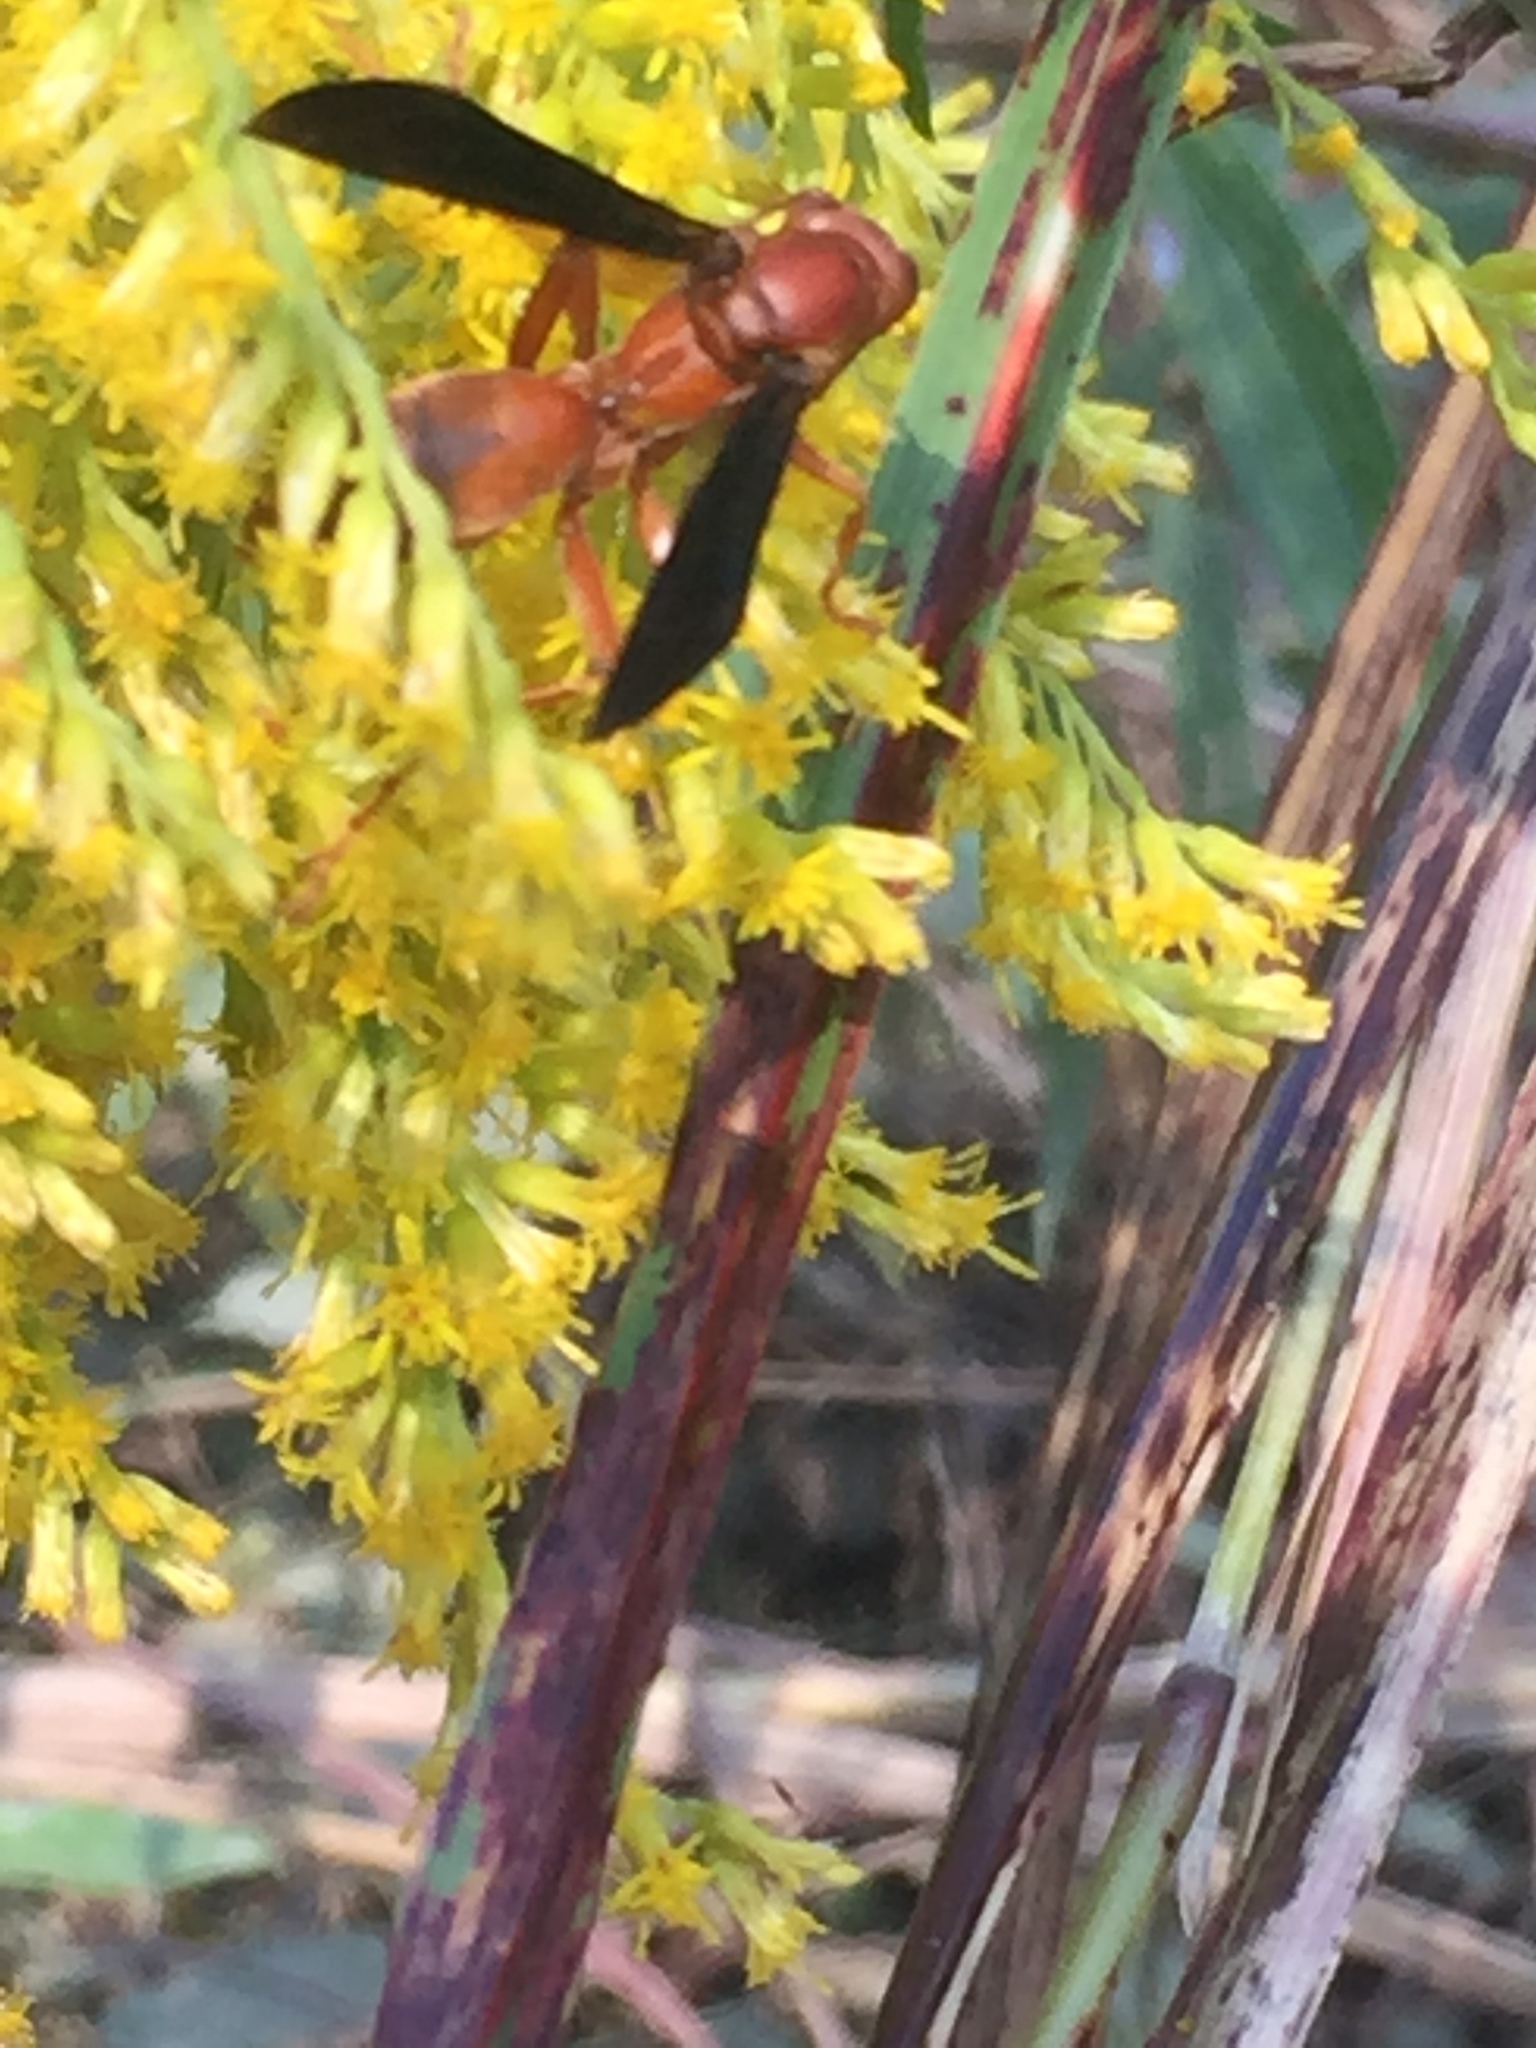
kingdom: Animalia
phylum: Arthropoda
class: Insecta
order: Hymenoptera
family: Vespidae
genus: Fuscopolistes
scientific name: Fuscopolistes
